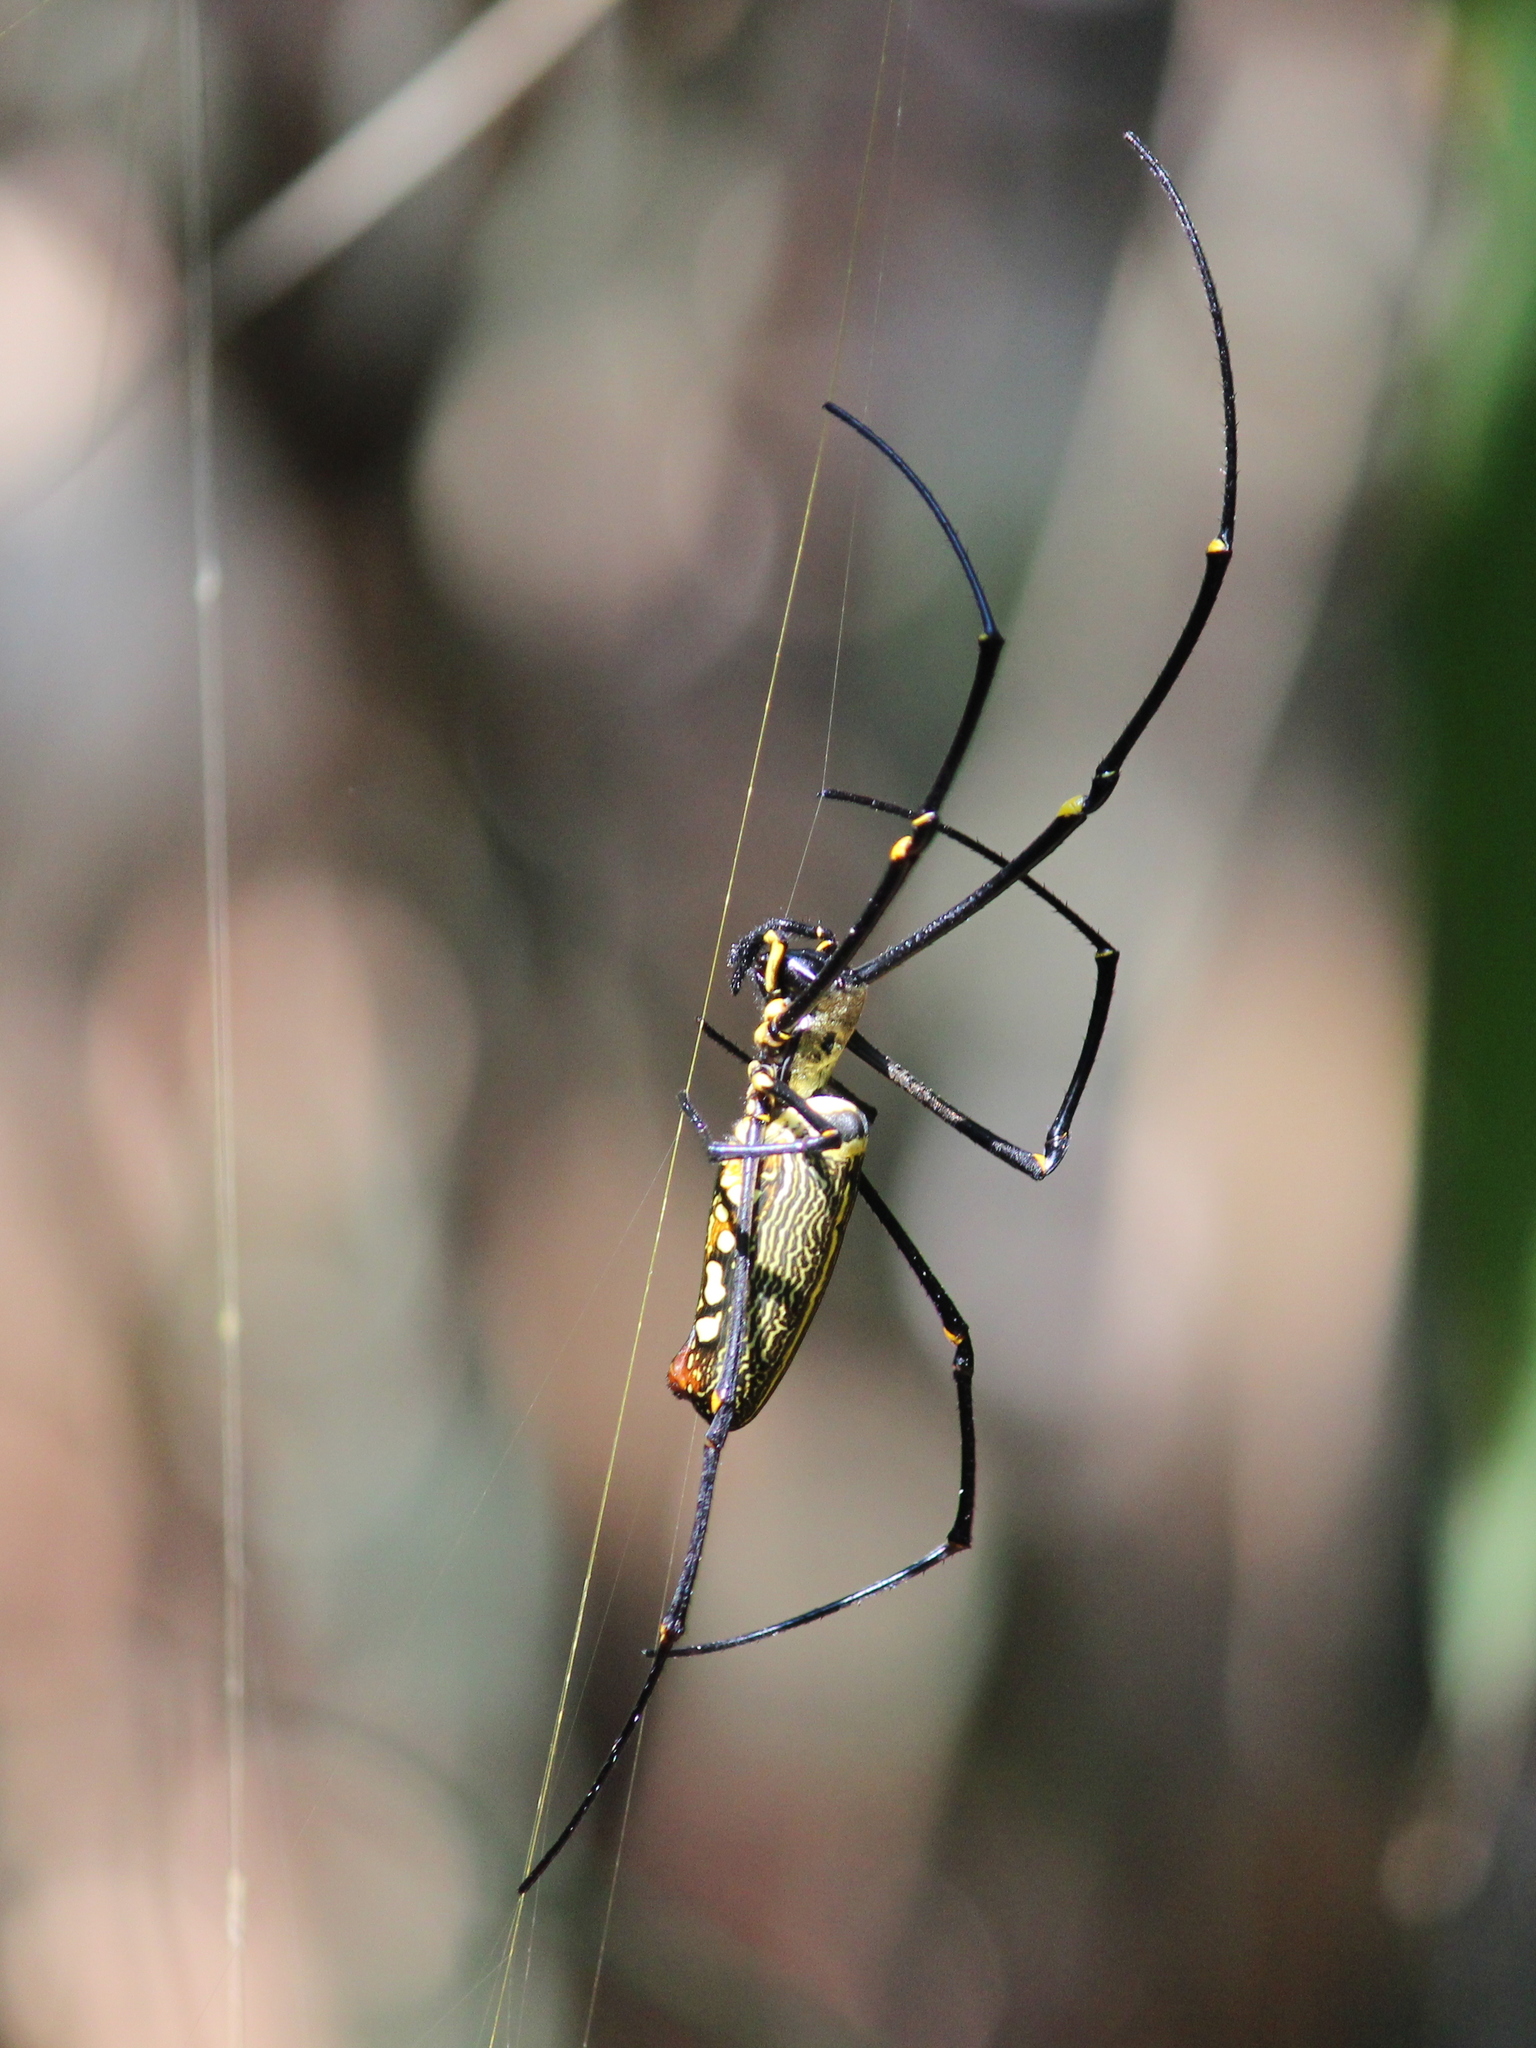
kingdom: Animalia
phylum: Arthropoda
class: Arachnida
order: Araneae
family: Araneidae
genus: Nephila
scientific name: Nephila pilipes
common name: Giant golden orb weaver
